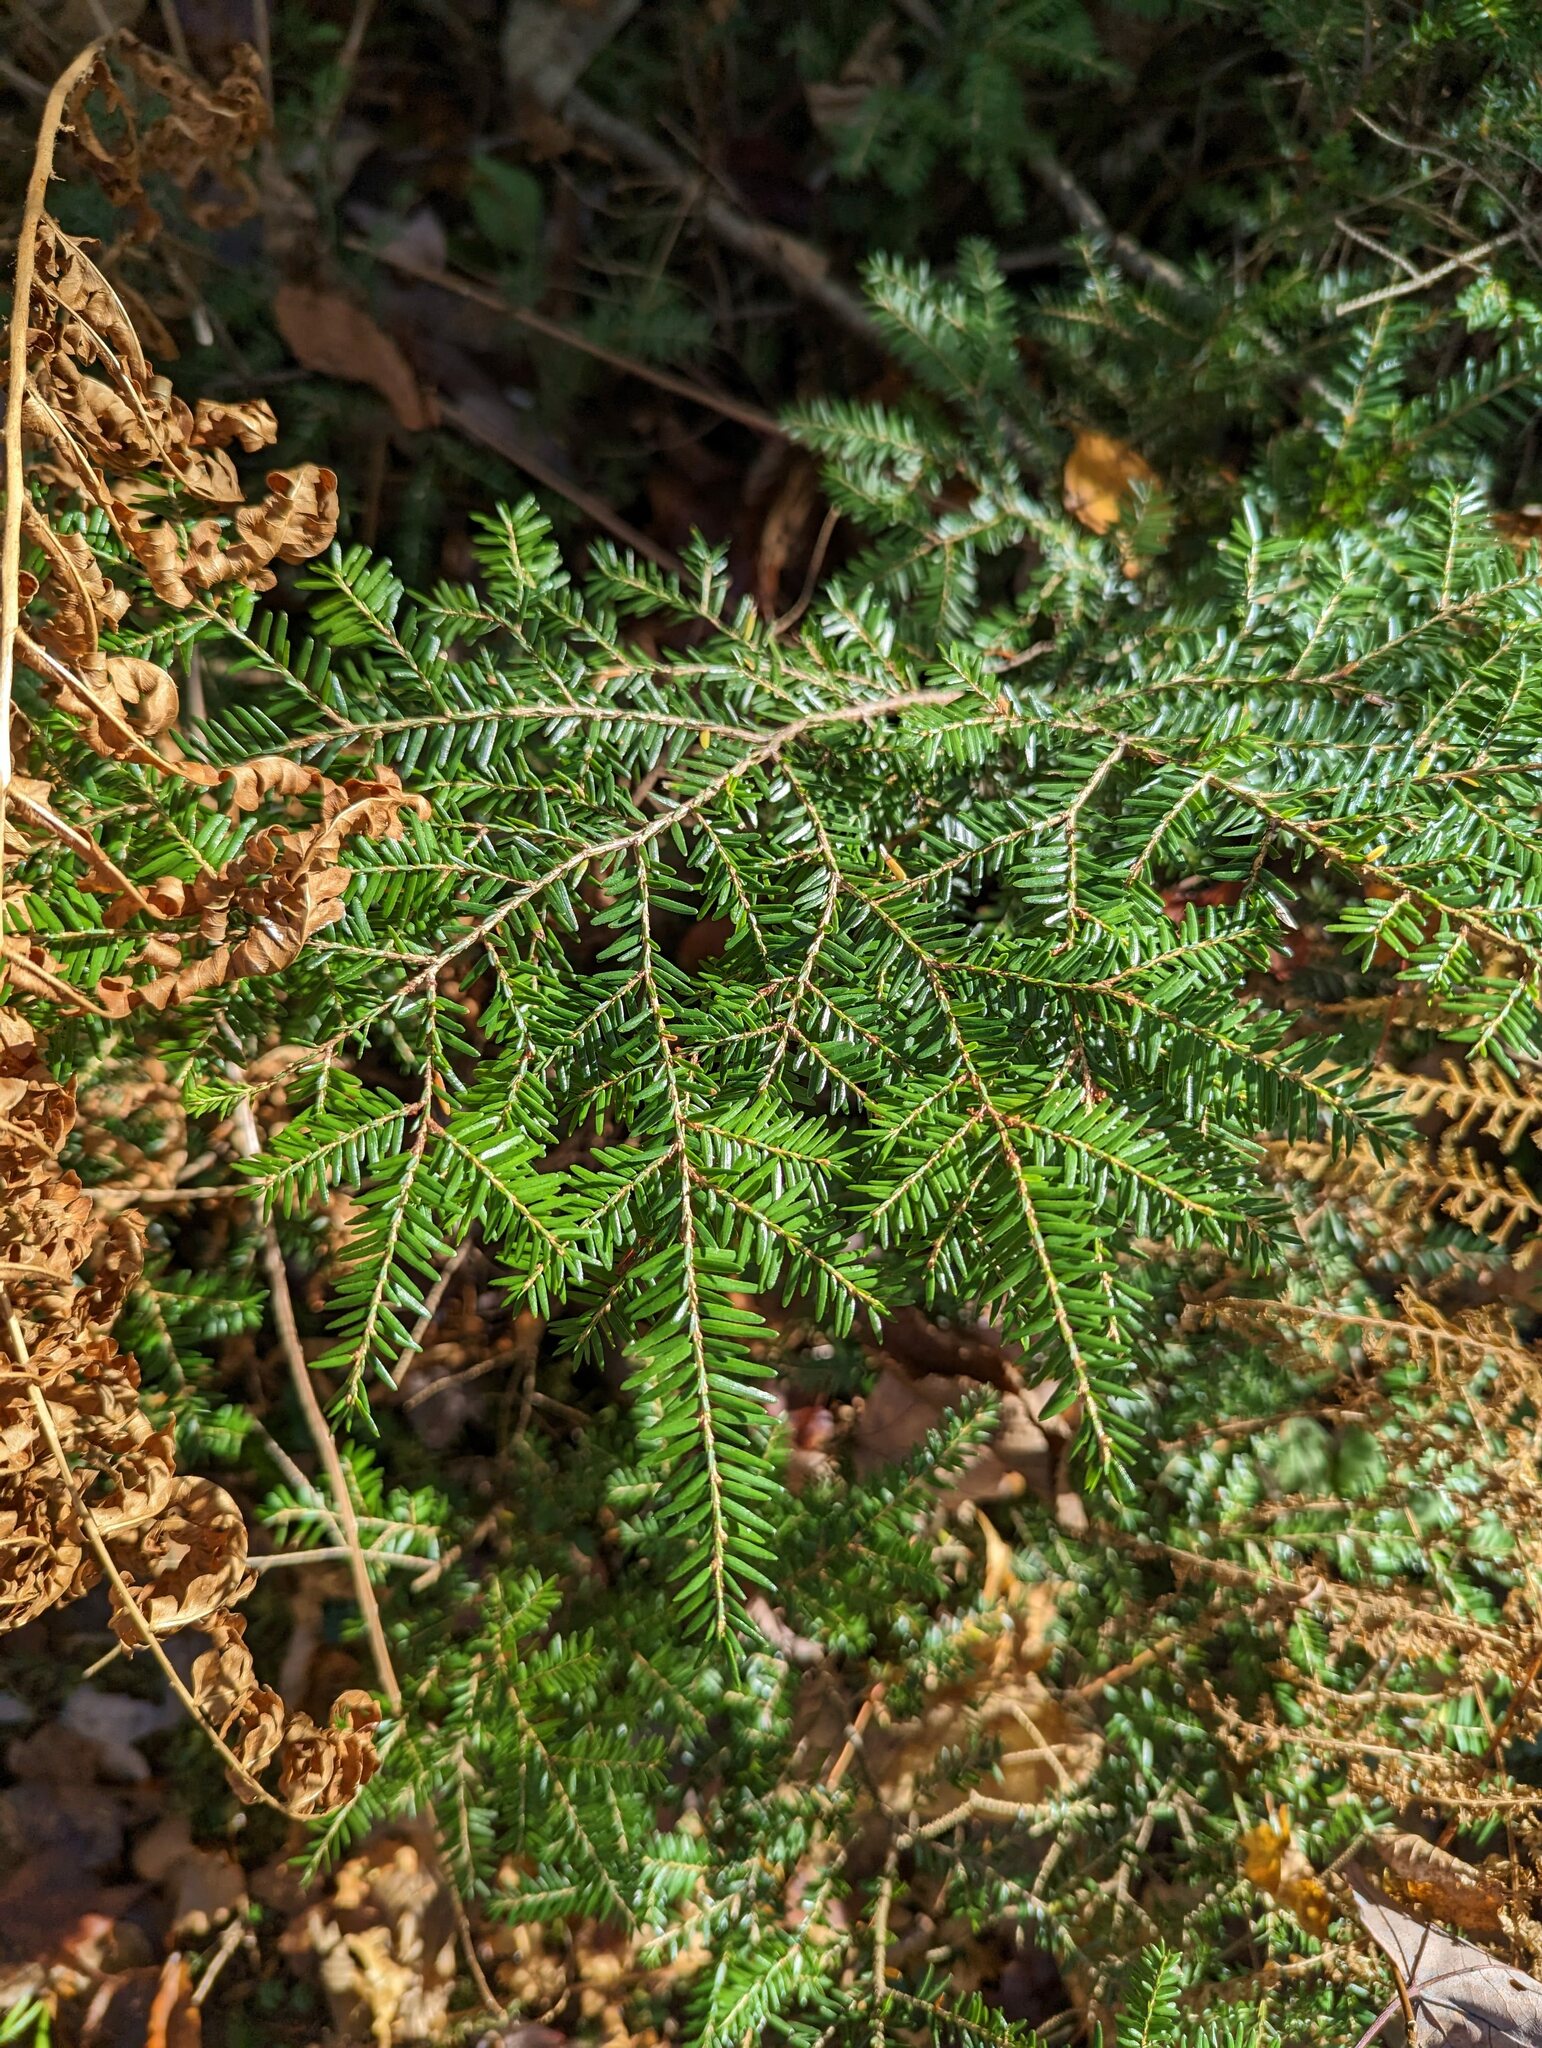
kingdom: Plantae
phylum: Tracheophyta
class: Pinopsida
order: Pinales
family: Pinaceae
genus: Tsuga
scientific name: Tsuga canadensis
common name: Eastern hemlock
